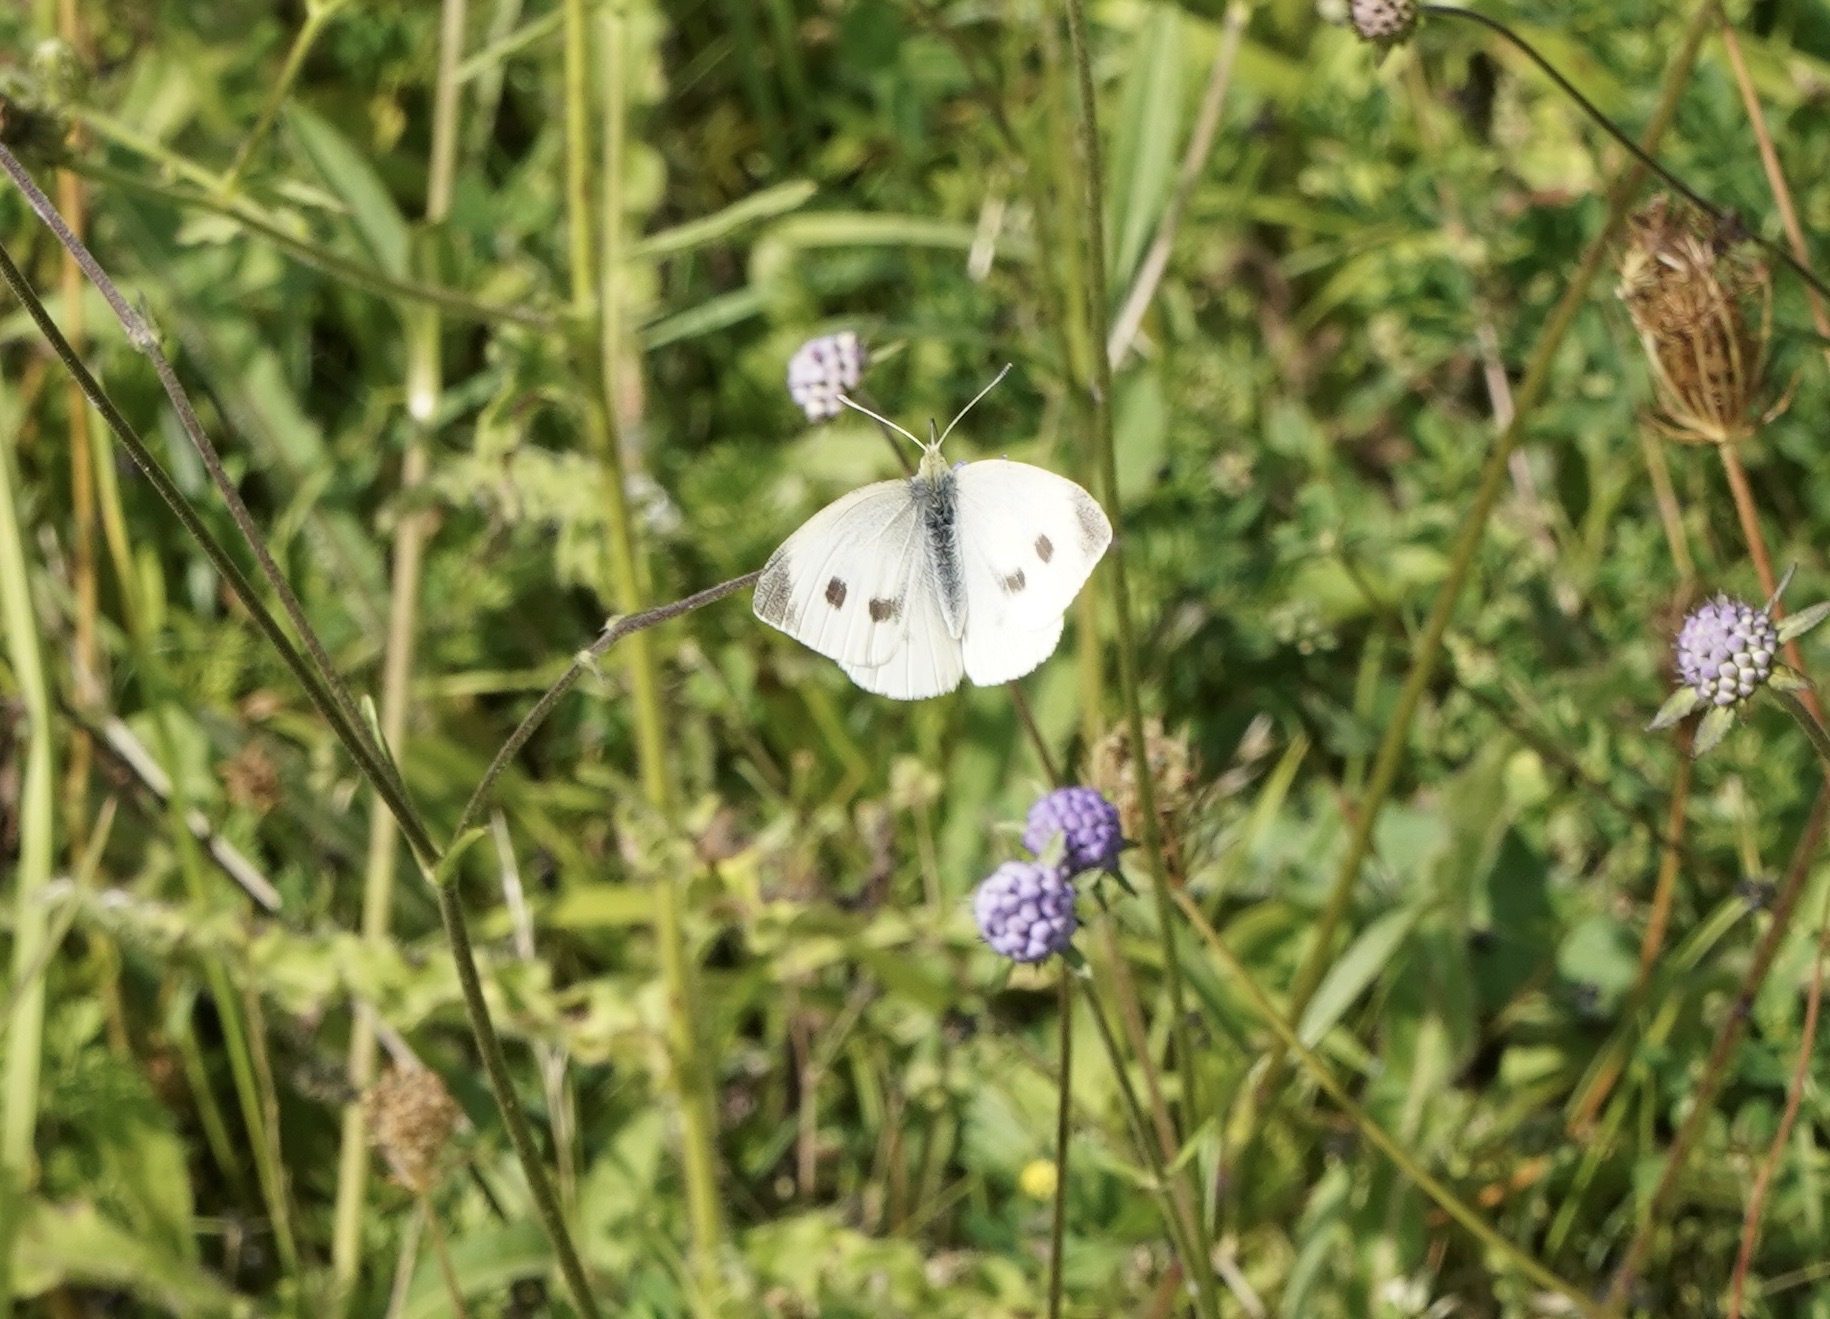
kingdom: Animalia
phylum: Arthropoda
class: Insecta
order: Lepidoptera
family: Pieridae
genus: Pieris
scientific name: Pieris rapae
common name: Small white
